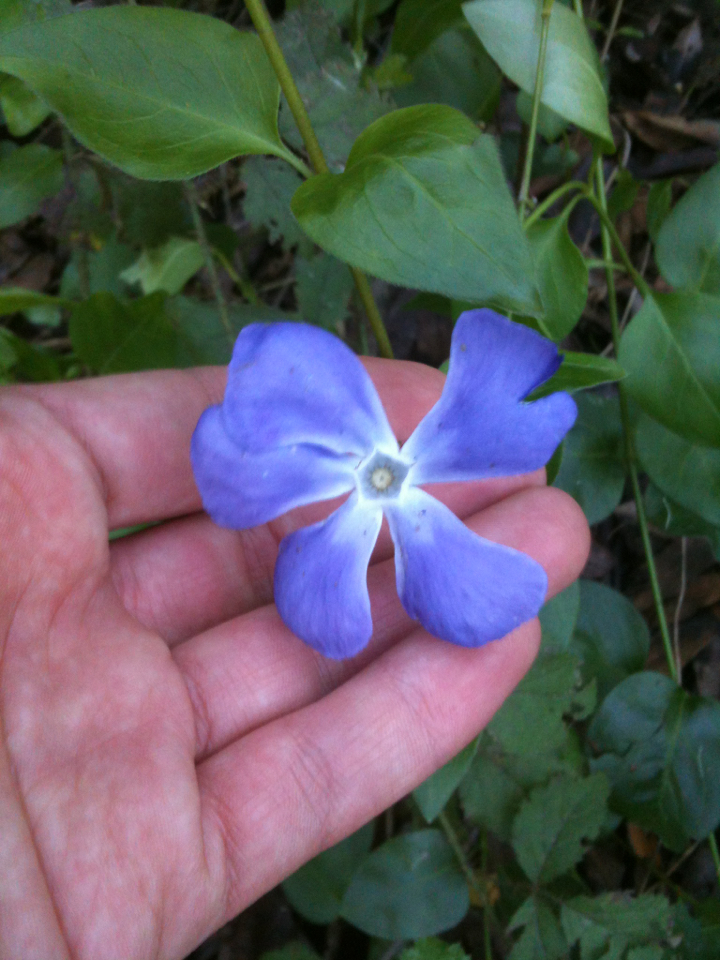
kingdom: Plantae
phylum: Tracheophyta
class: Magnoliopsida
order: Gentianales
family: Apocynaceae
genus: Vinca
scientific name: Vinca major
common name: Greater periwinkle
